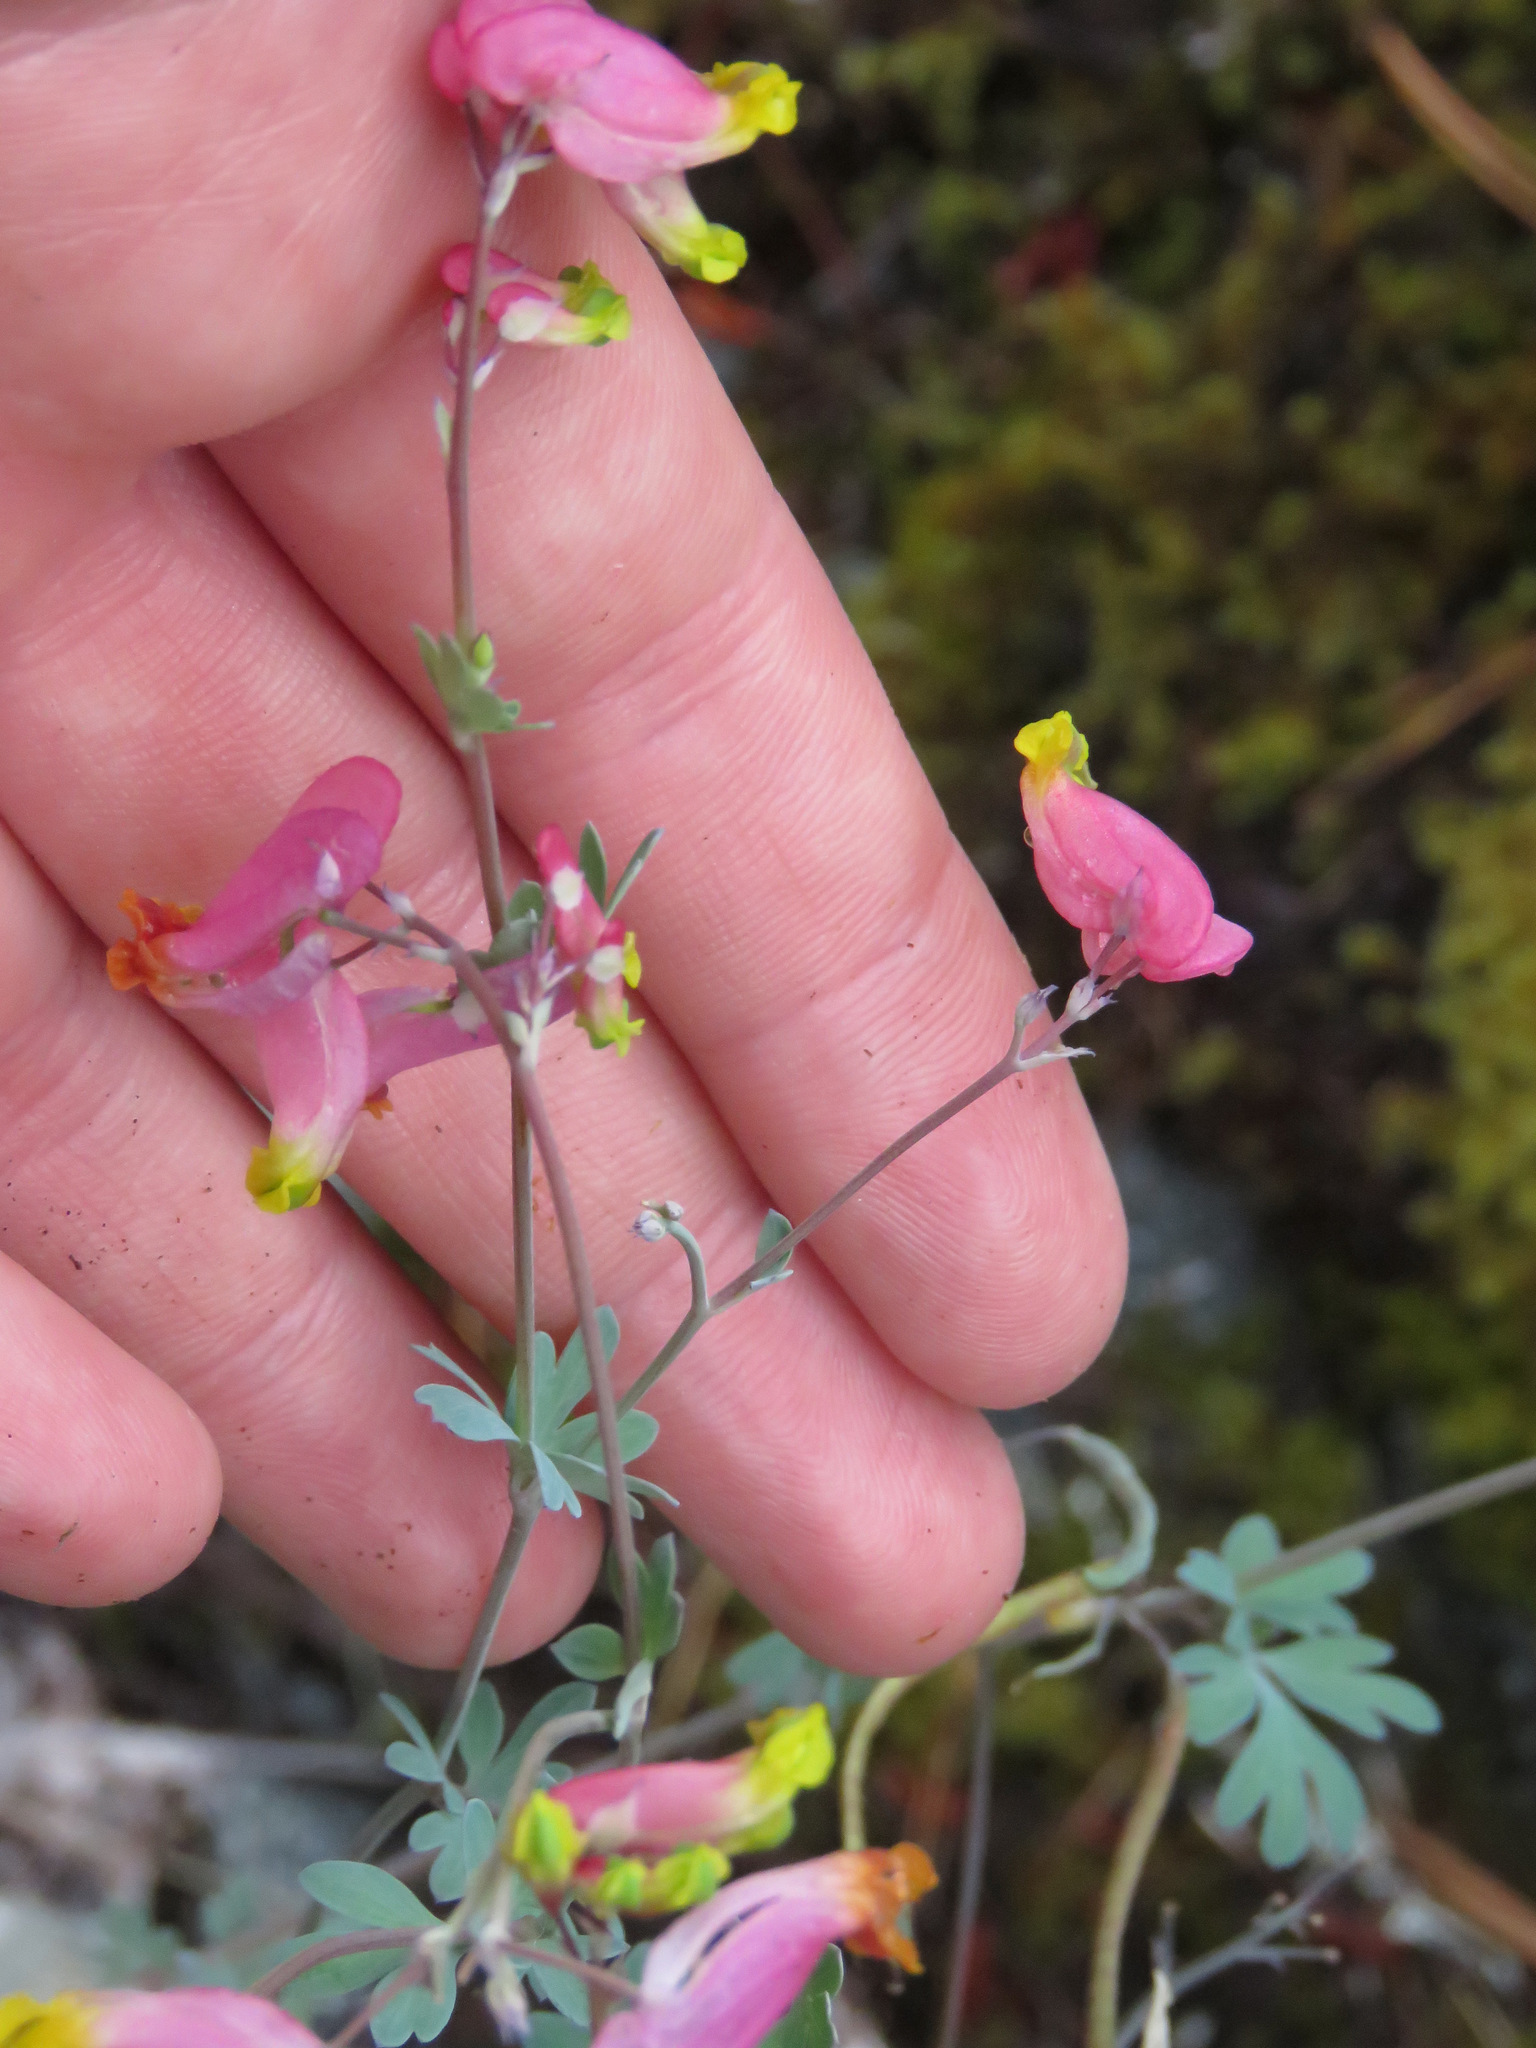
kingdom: Plantae
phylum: Tracheophyta
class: Magnoliopsida
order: Ranunculales
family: Papaveraceae
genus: Capnoides
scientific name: Capnoides sempervirens
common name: Rock harlequin
